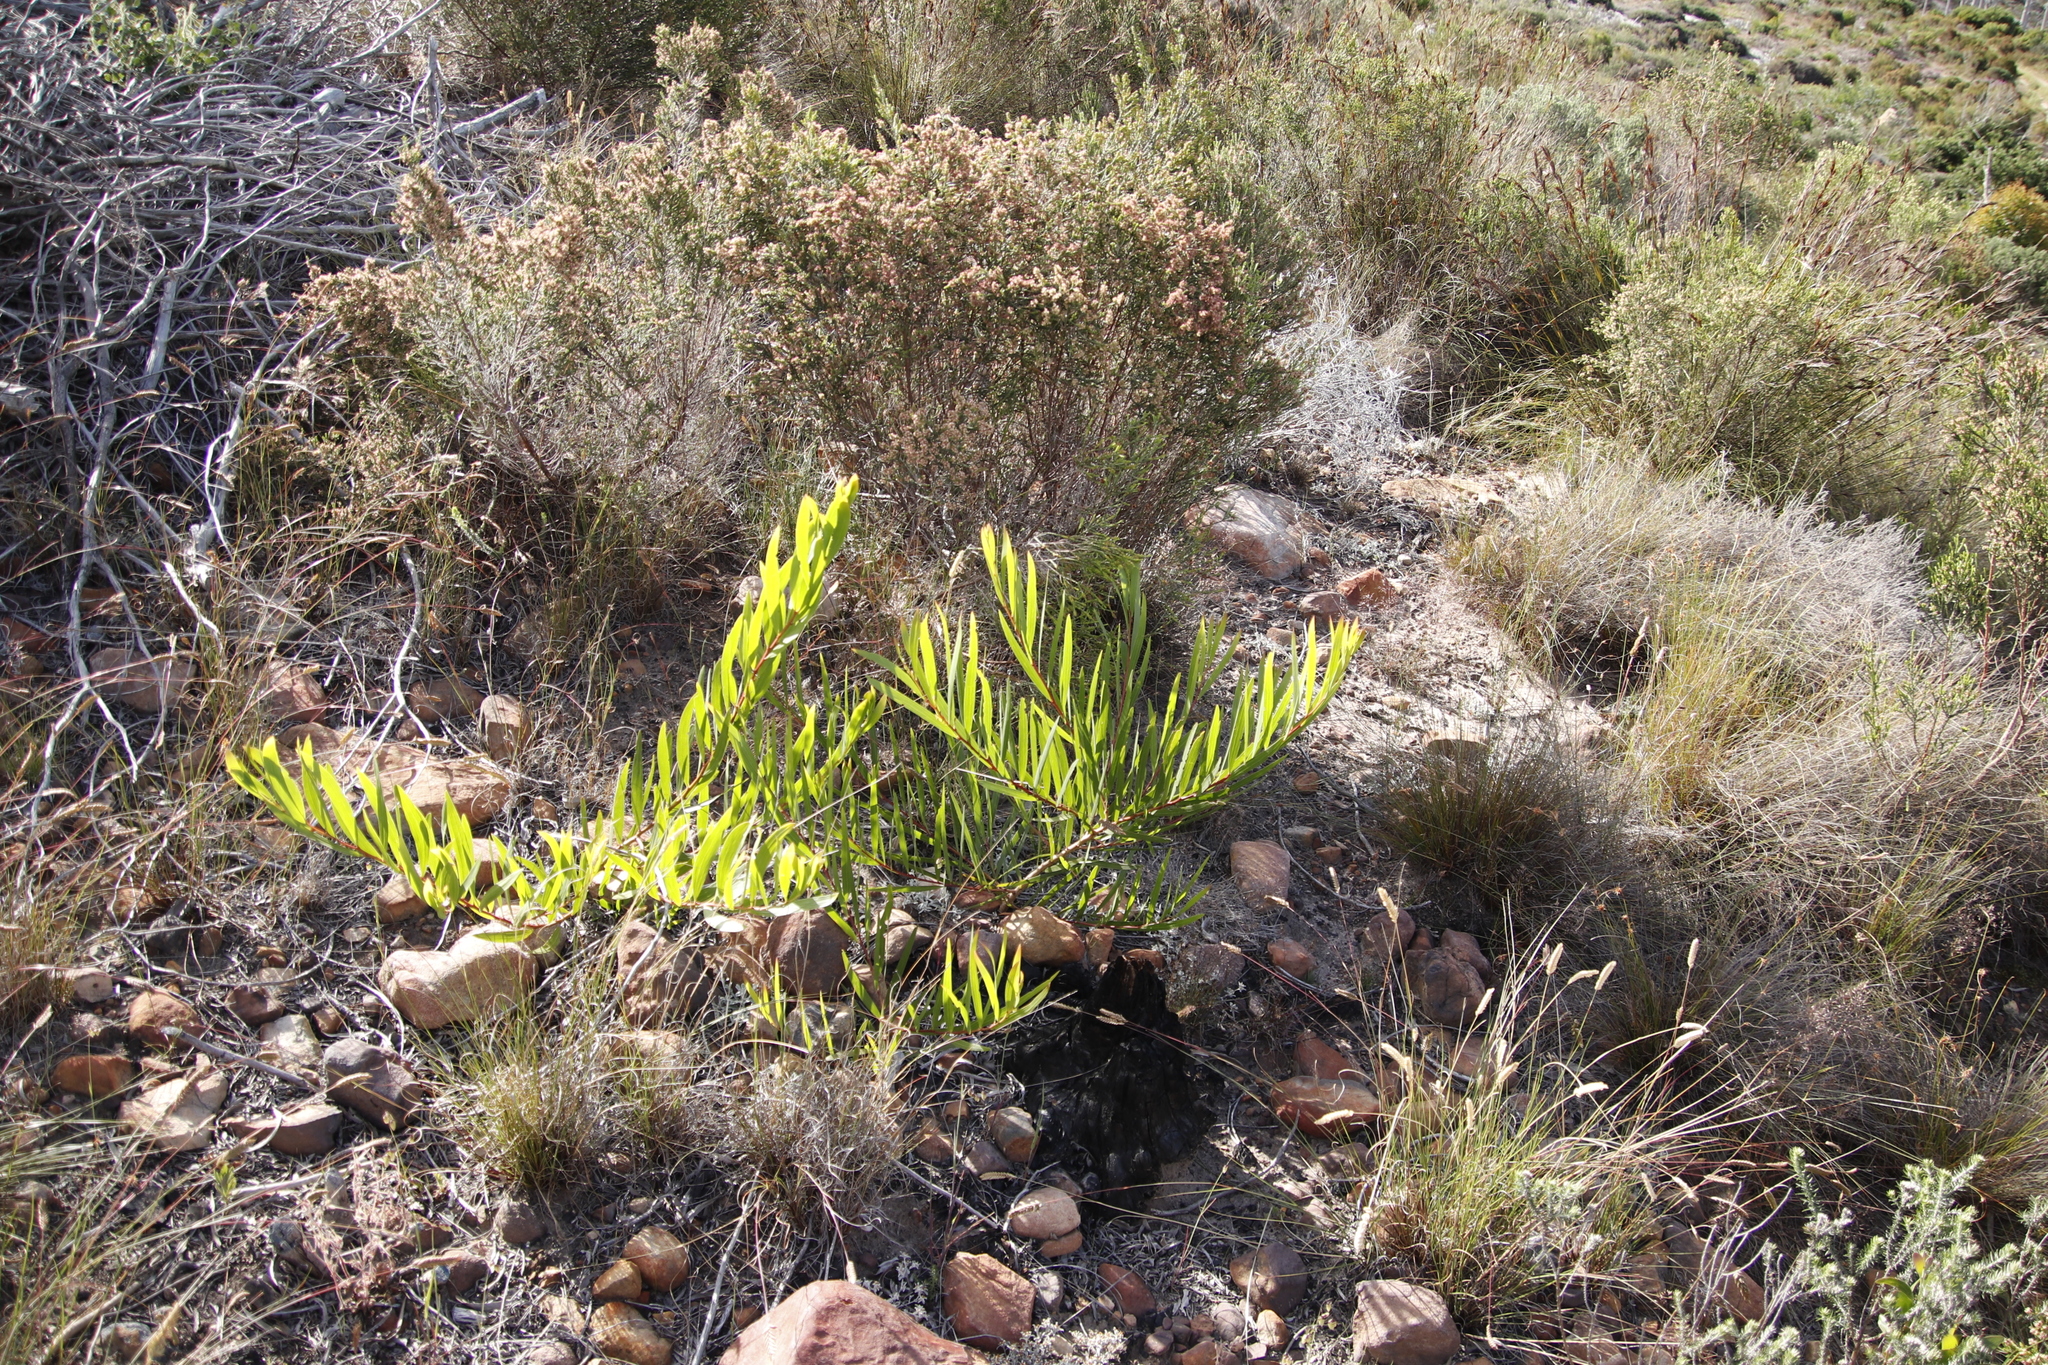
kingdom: Plantae
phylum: Tracheophyta
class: Magnoliopsida
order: Fabales
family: Fabaceae
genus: Acacia
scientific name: Acacia longifolia
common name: Sydney golden wattle
